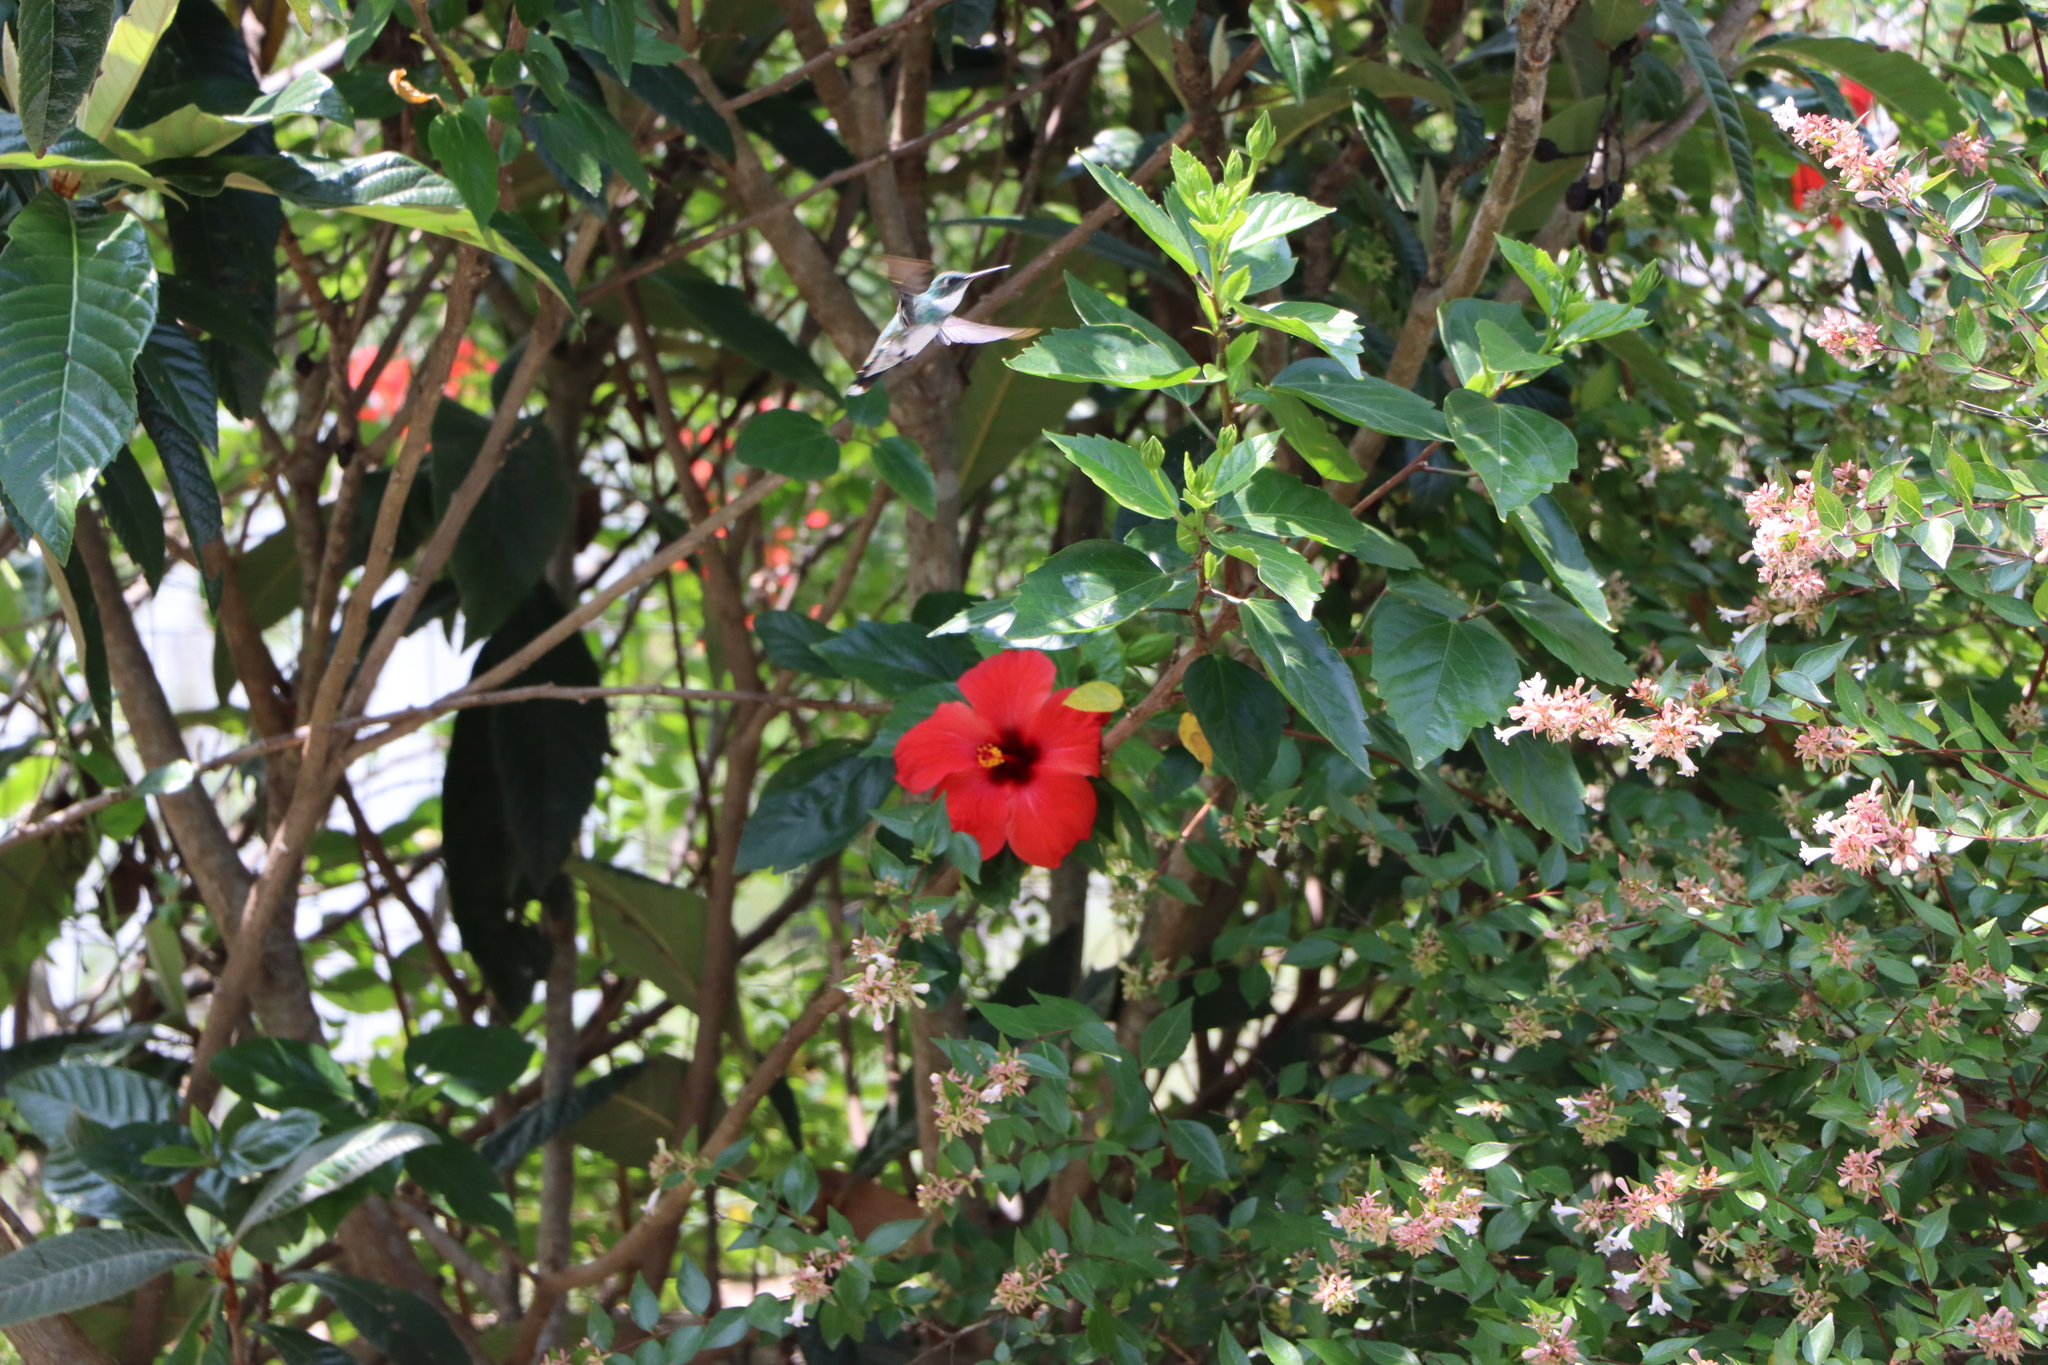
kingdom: Animalia
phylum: Chordata
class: Aves
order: Apodiformes
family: Trochilidae
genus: Leucochloris
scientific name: Leucochloris albicollis
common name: White-throated hummingbird
